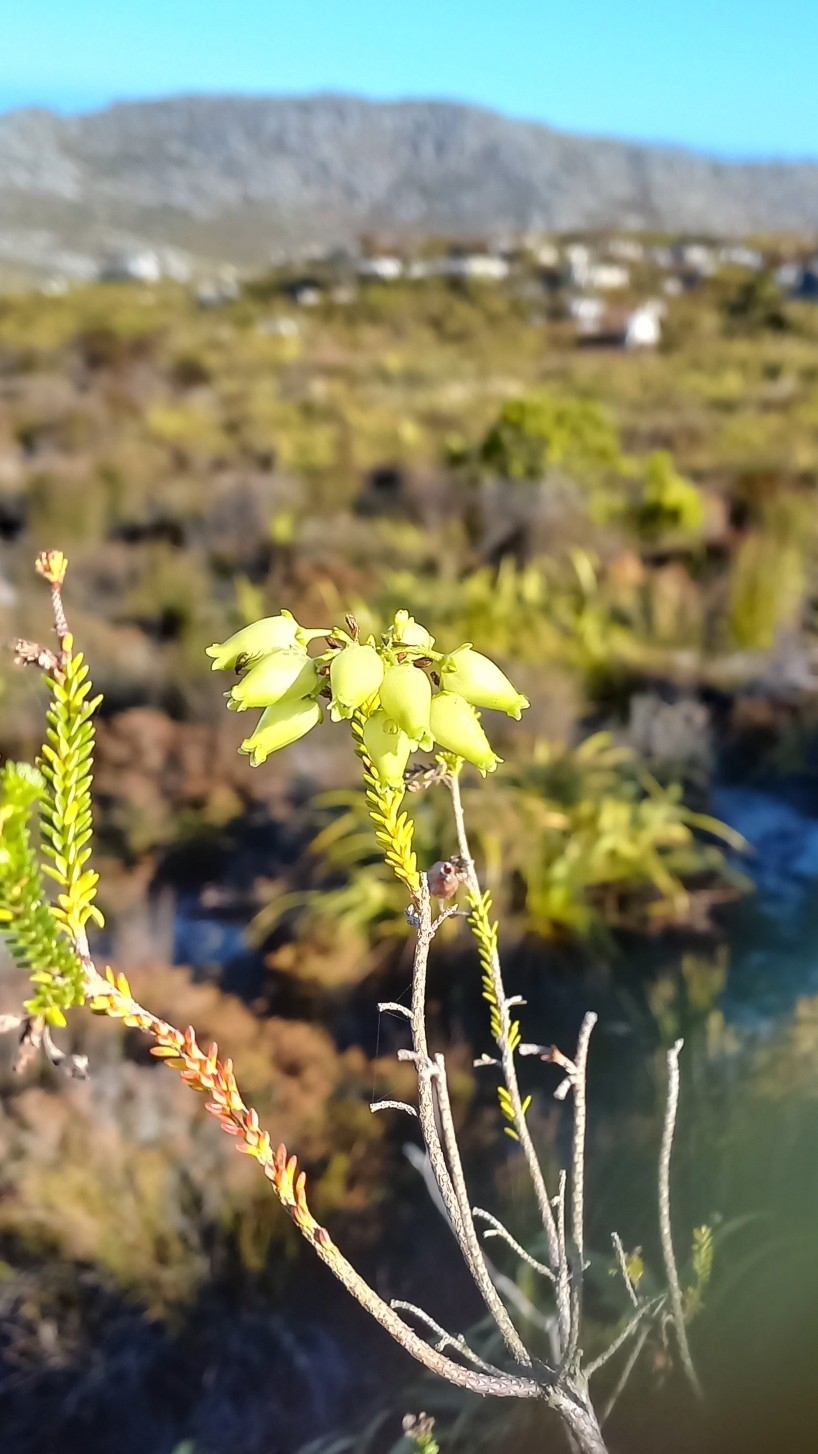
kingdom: Plantae
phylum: Tracheophyta
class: Magnoliopsida
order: Ericales
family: Ericaceae
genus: Erica
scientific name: Erica urna-viridis
